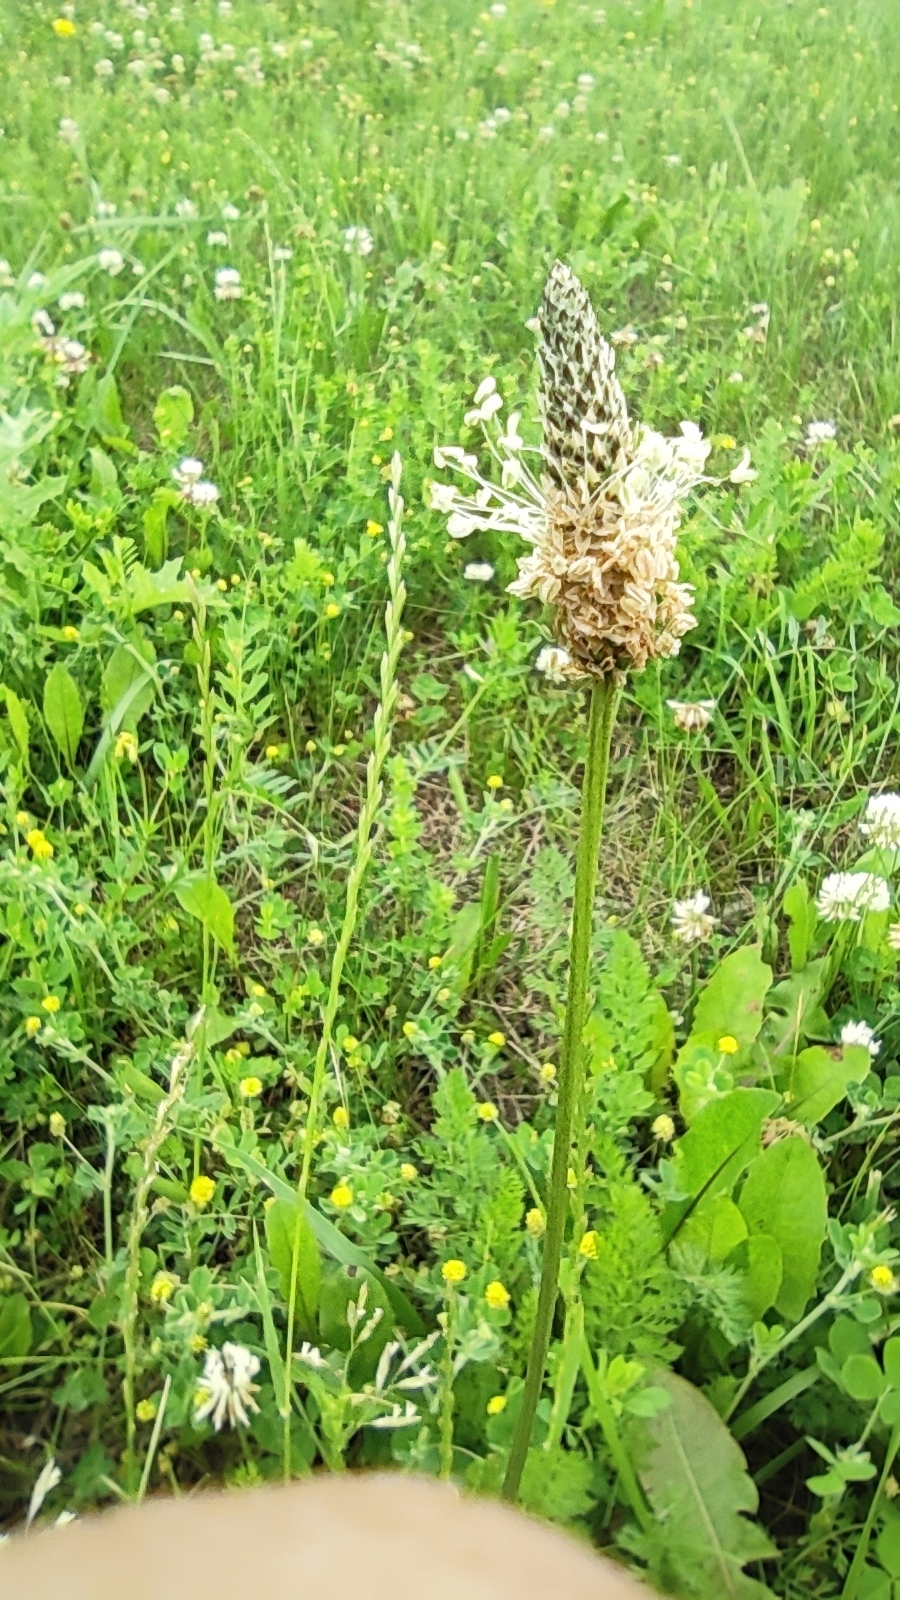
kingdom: Plantae
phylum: Tracheophyta
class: Magnoliopsida
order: Lamiales
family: Plantaginaceae
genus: Plantago
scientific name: Plantago lanceolata
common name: Ribwort plantain
